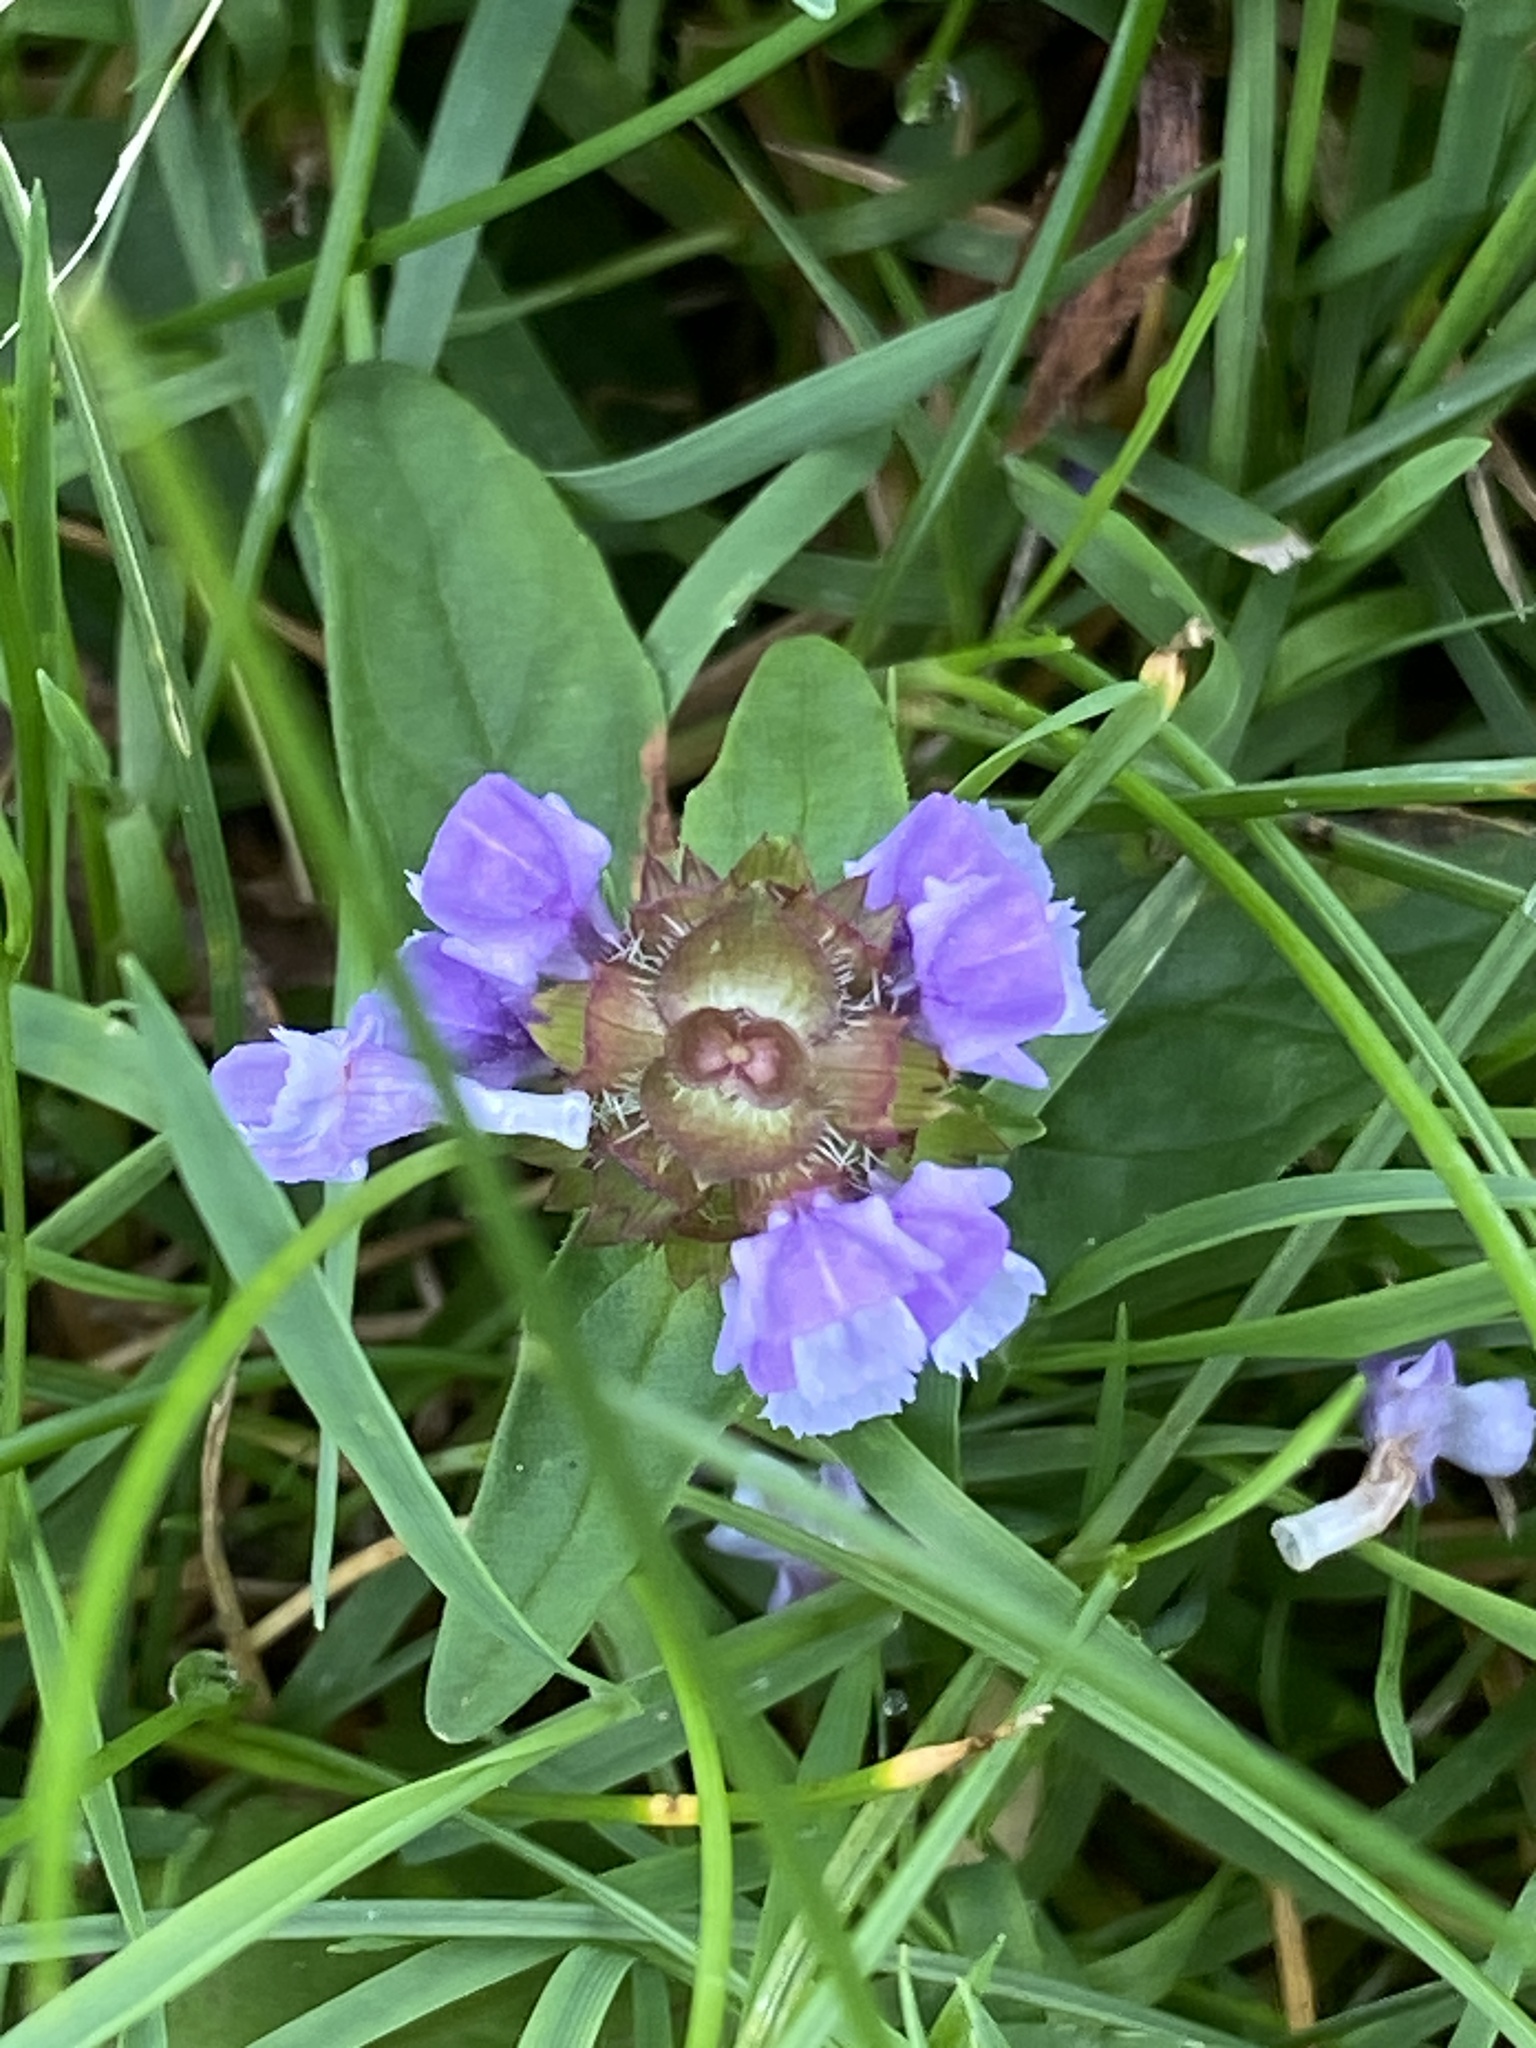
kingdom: Plantae
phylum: Tracheophyta
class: Magnoliopsida
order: Lamiales
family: Lamiaceae
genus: Prunella
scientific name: Prunella vulgaris
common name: Heal-all
